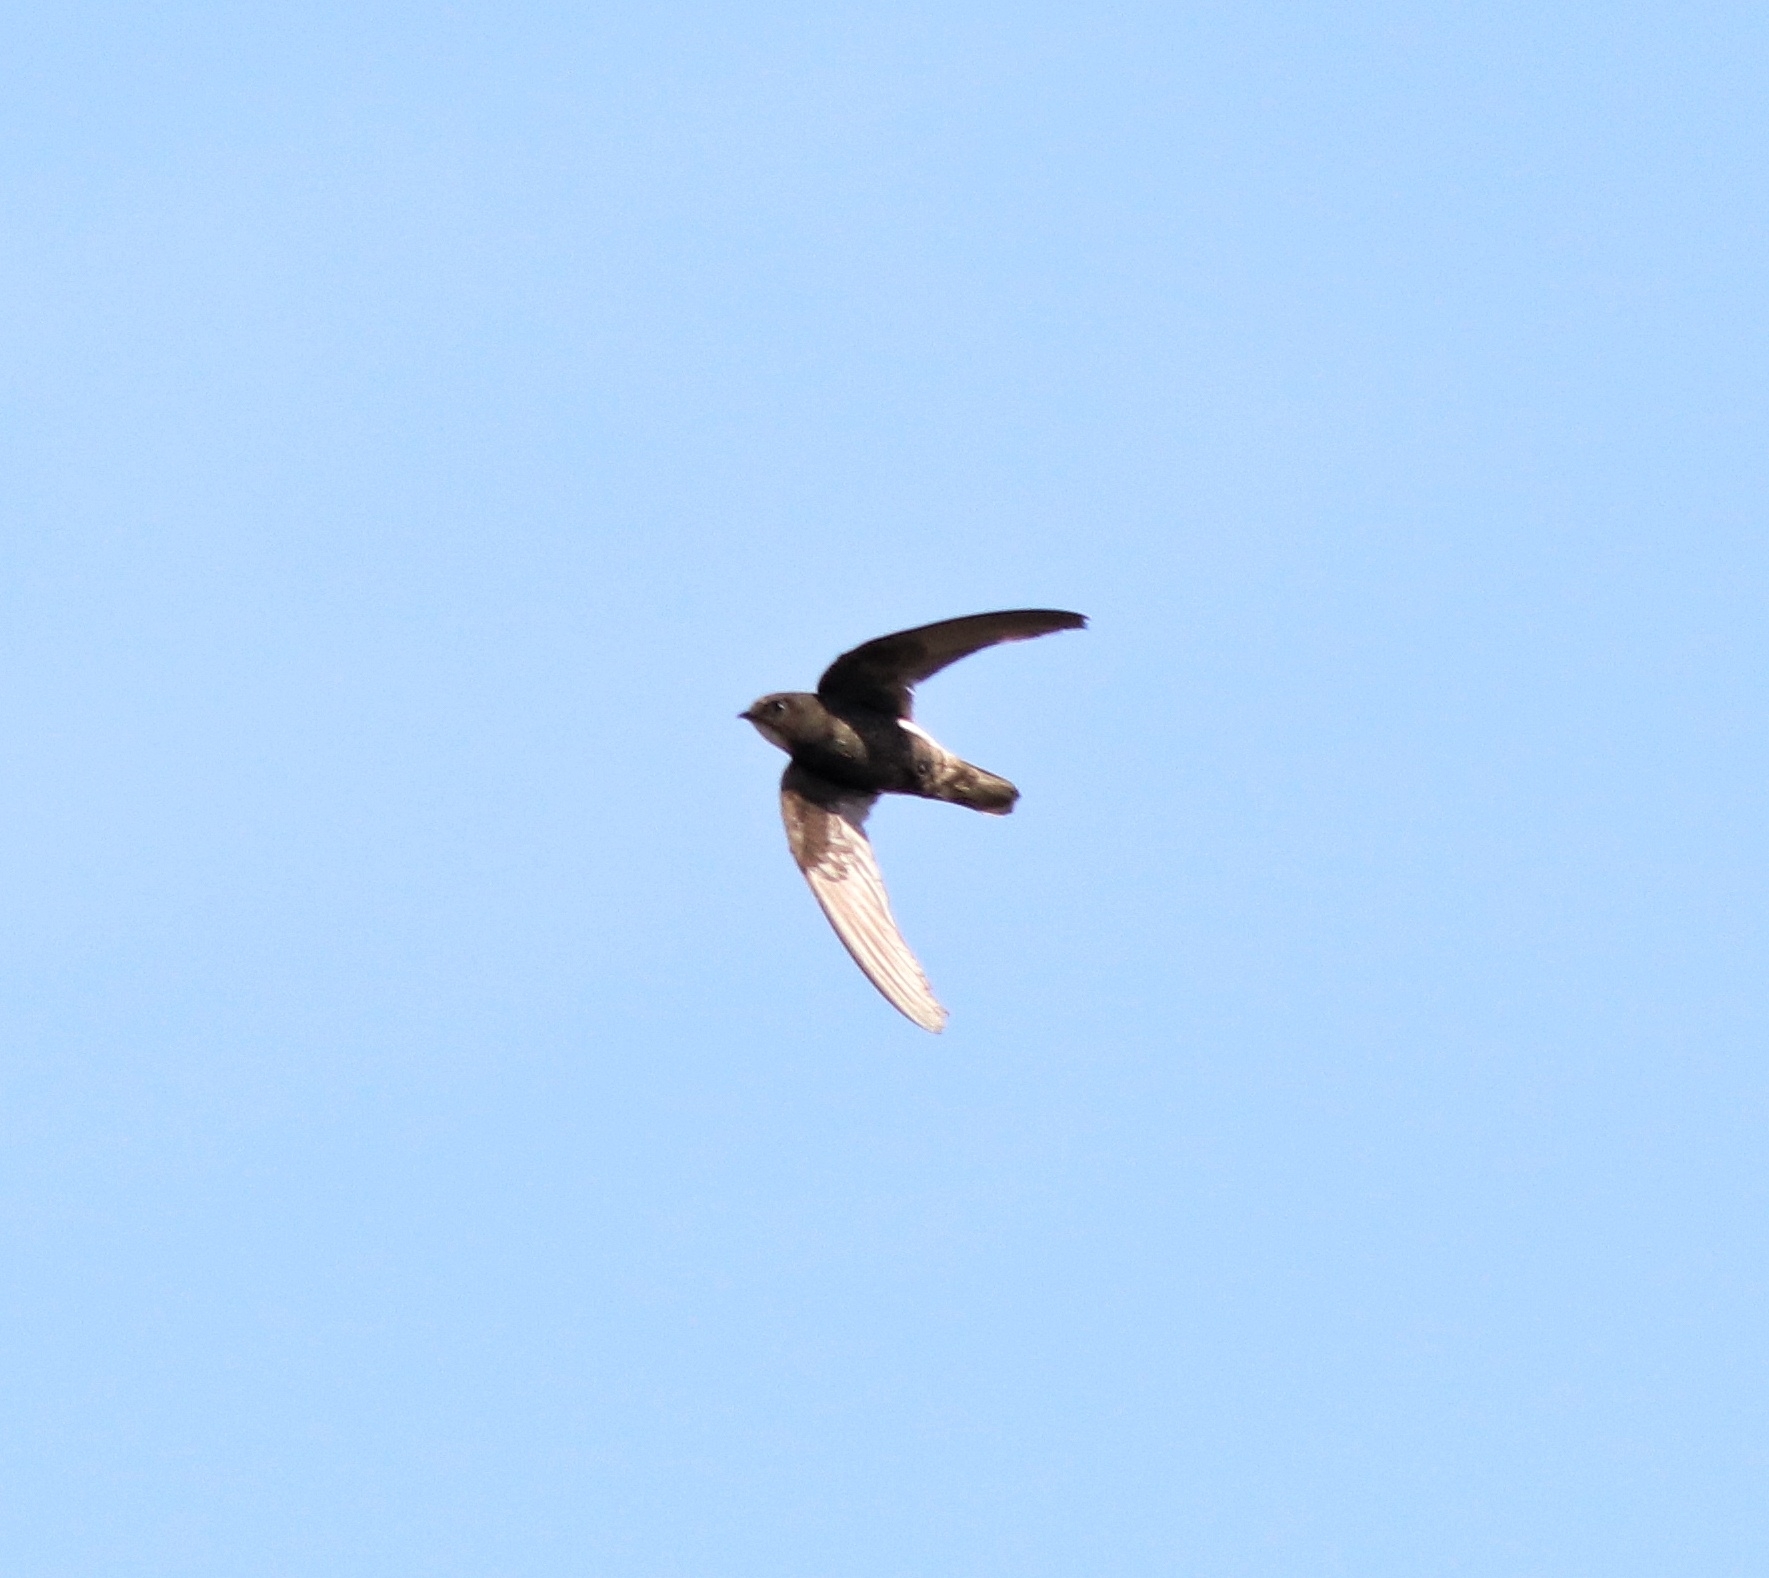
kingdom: Animalia
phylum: Chordata
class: Aves
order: Apodiformes
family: Apodidae
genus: Apus
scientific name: Apus affinis
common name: Little swift
